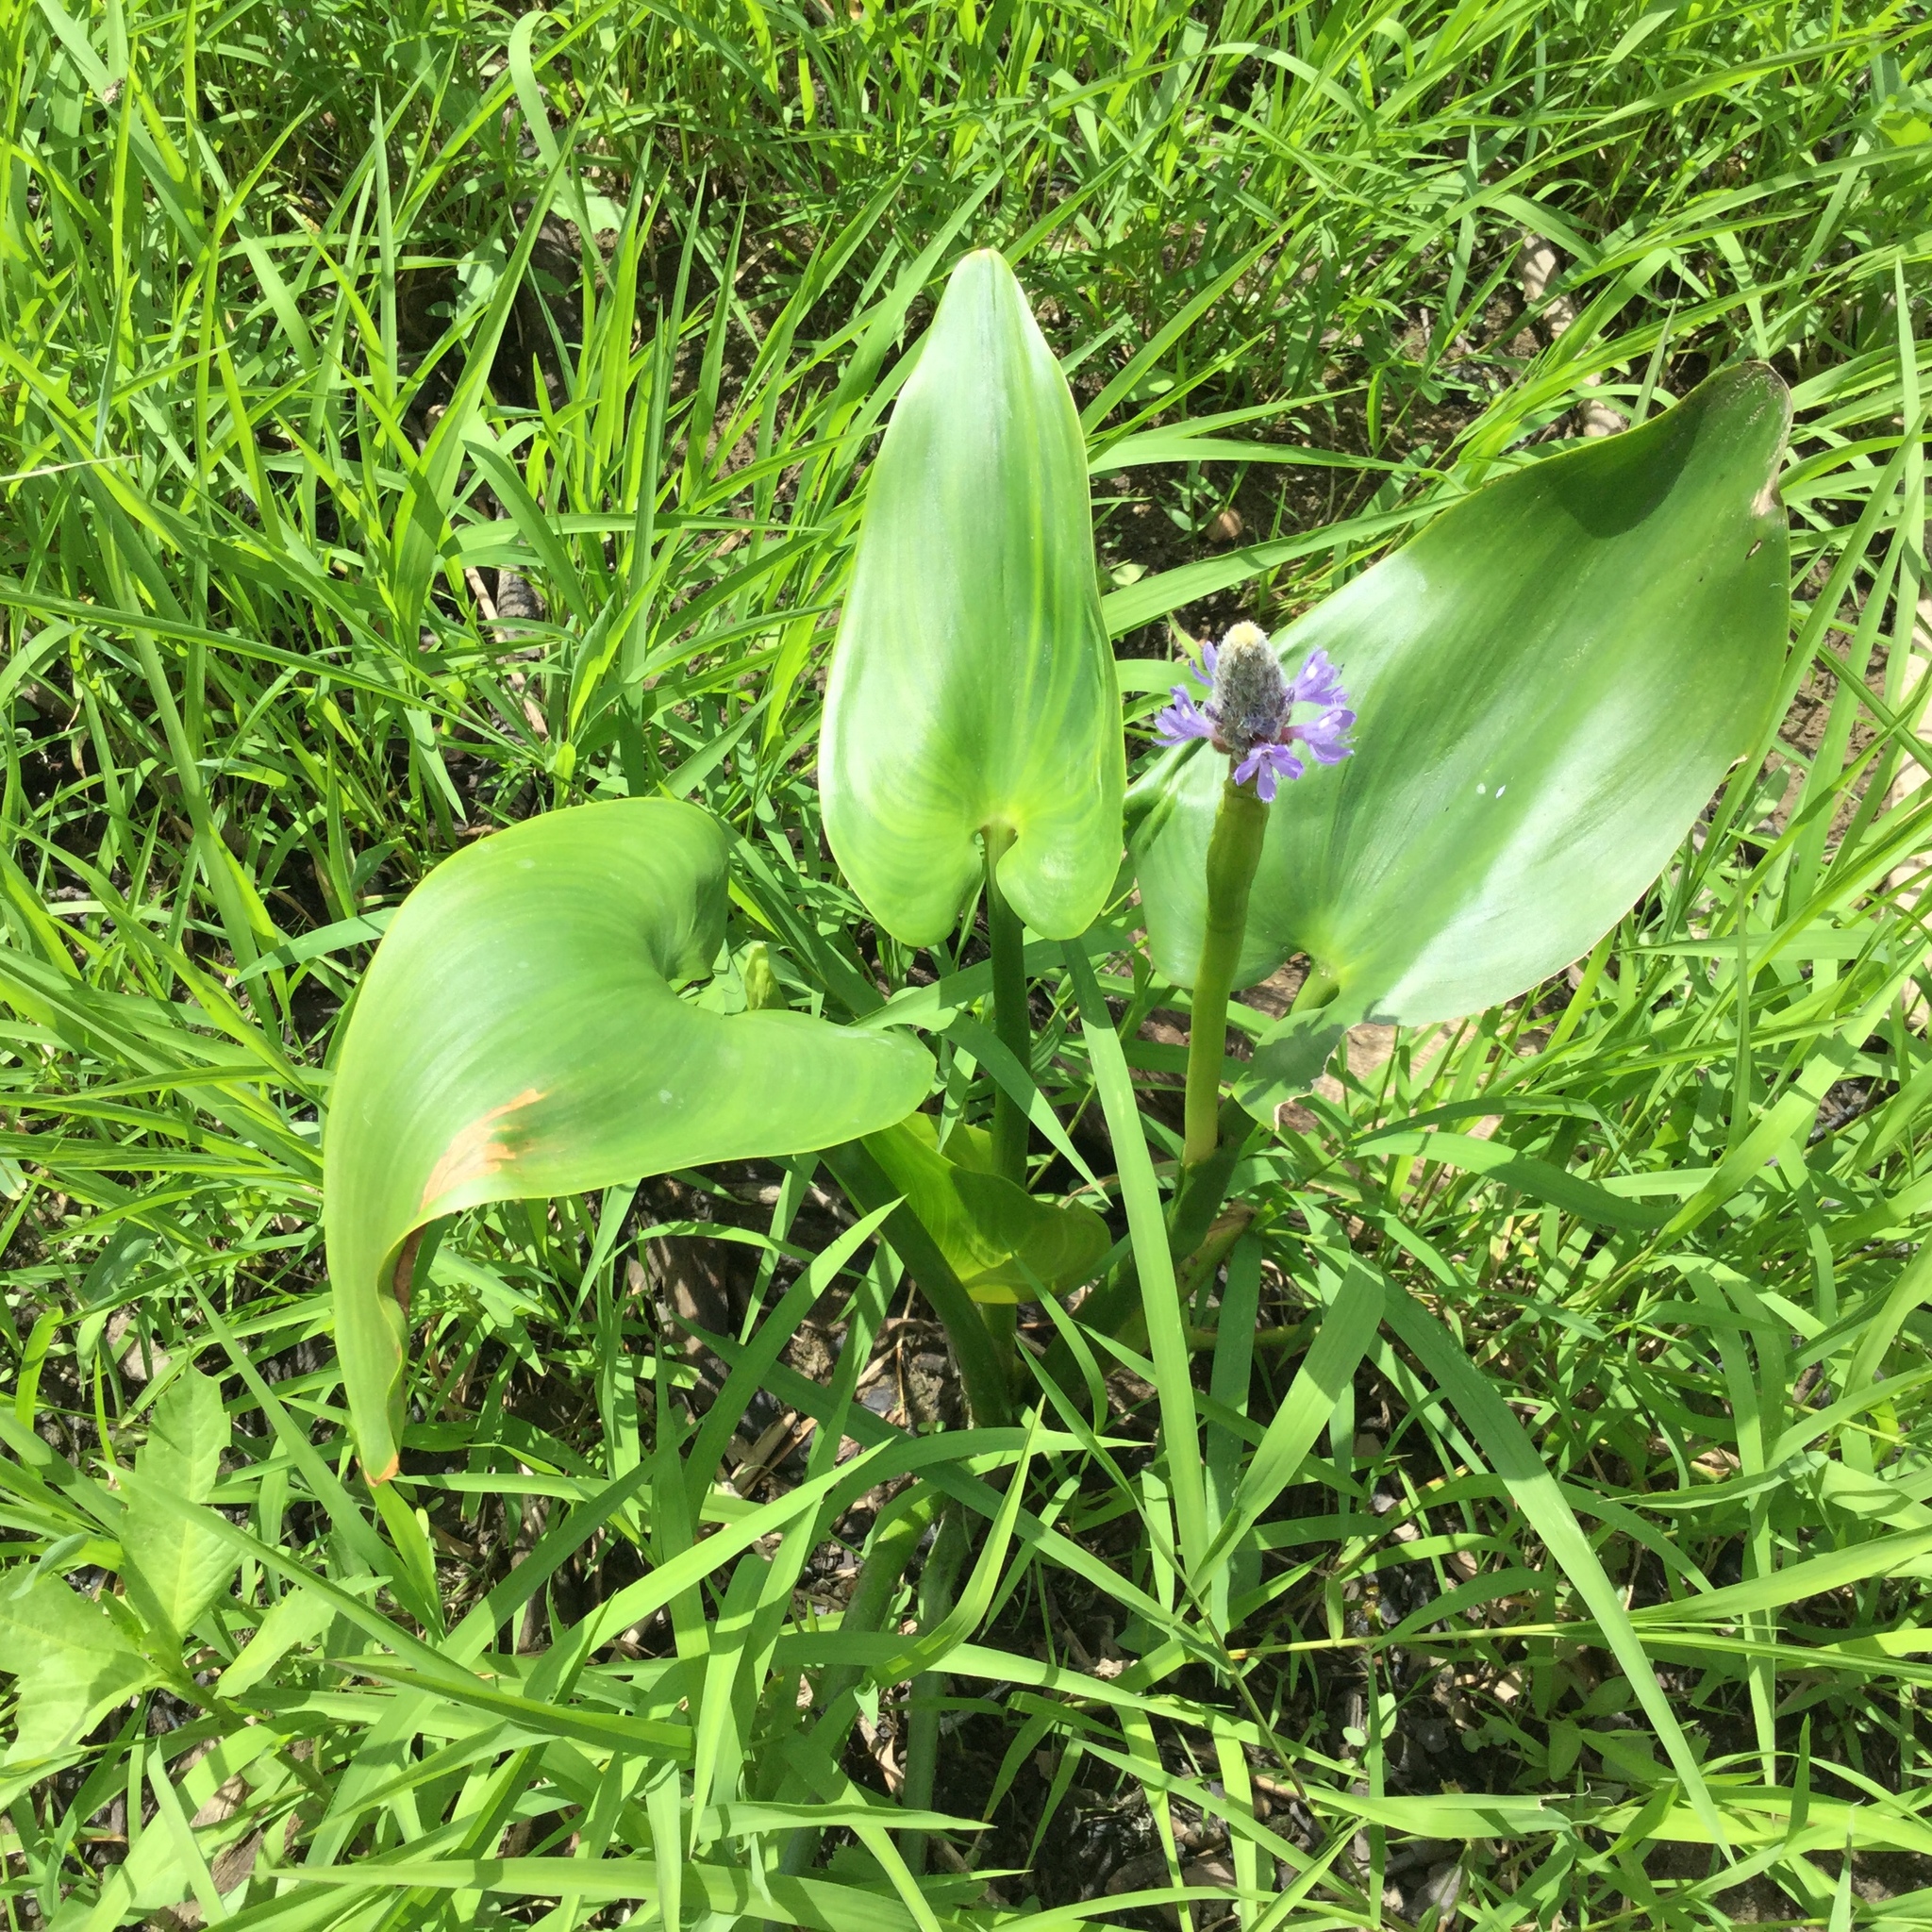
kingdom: Plantae
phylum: Tracheophyta
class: Liliopsida
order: Commelinales
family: Pontederiaceae
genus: Pontederia
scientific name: Pontederia cordata
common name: Pickerelweed
